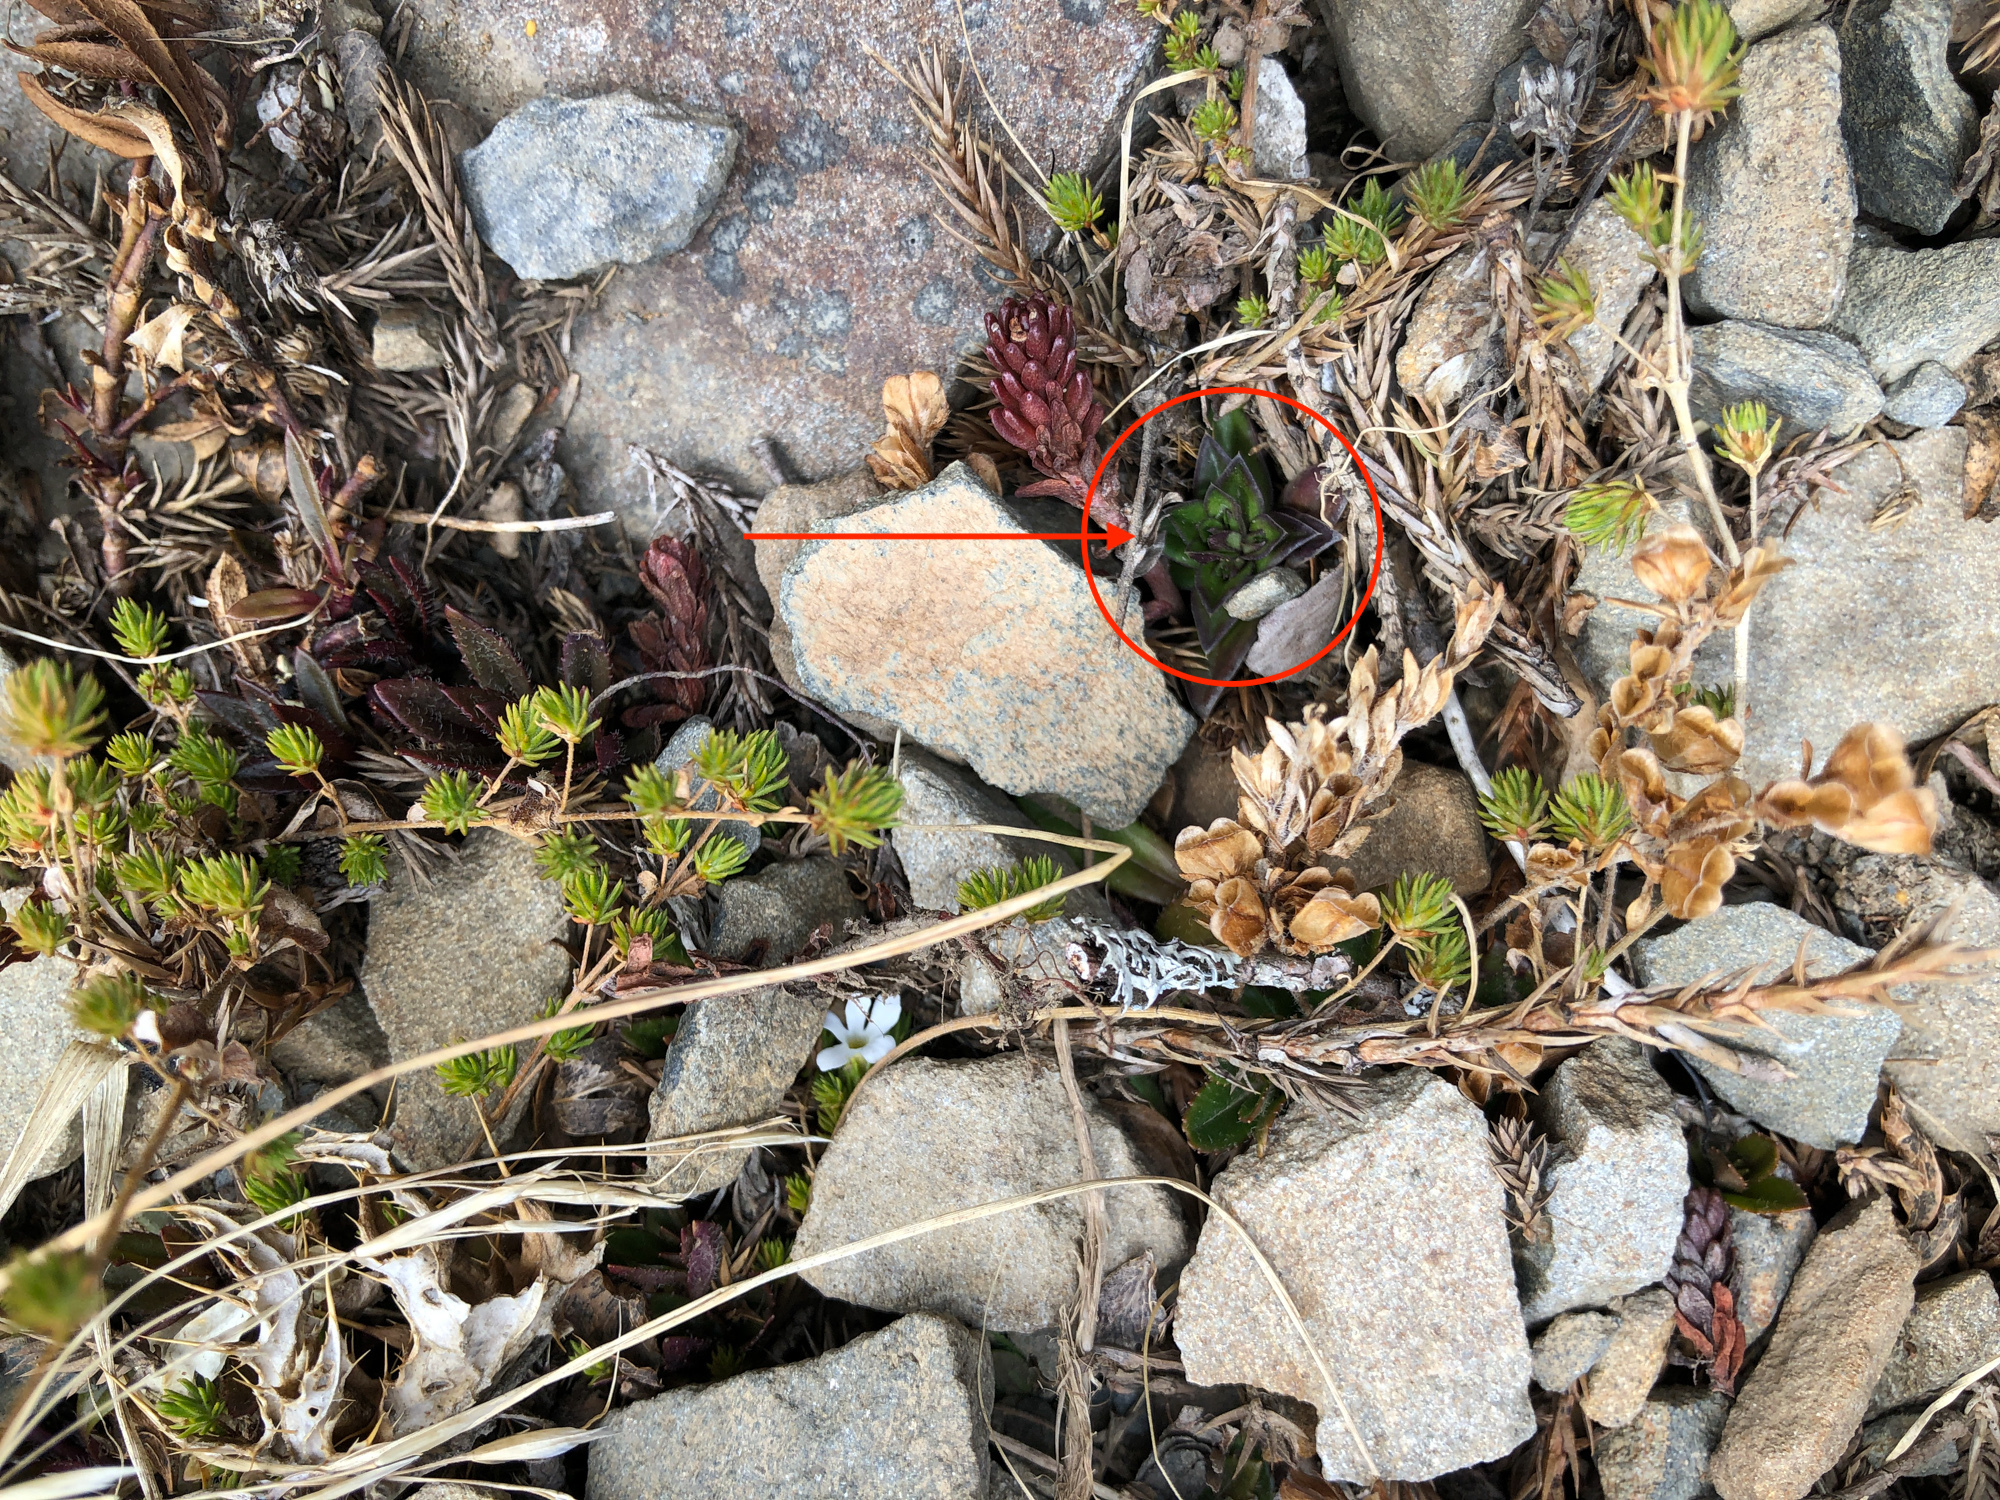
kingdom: Plantae
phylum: Tracheophyta
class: Magnoliopsida
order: Gentianales
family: Gentianaceae
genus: Gentiana
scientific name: Gentiana arisanensis
